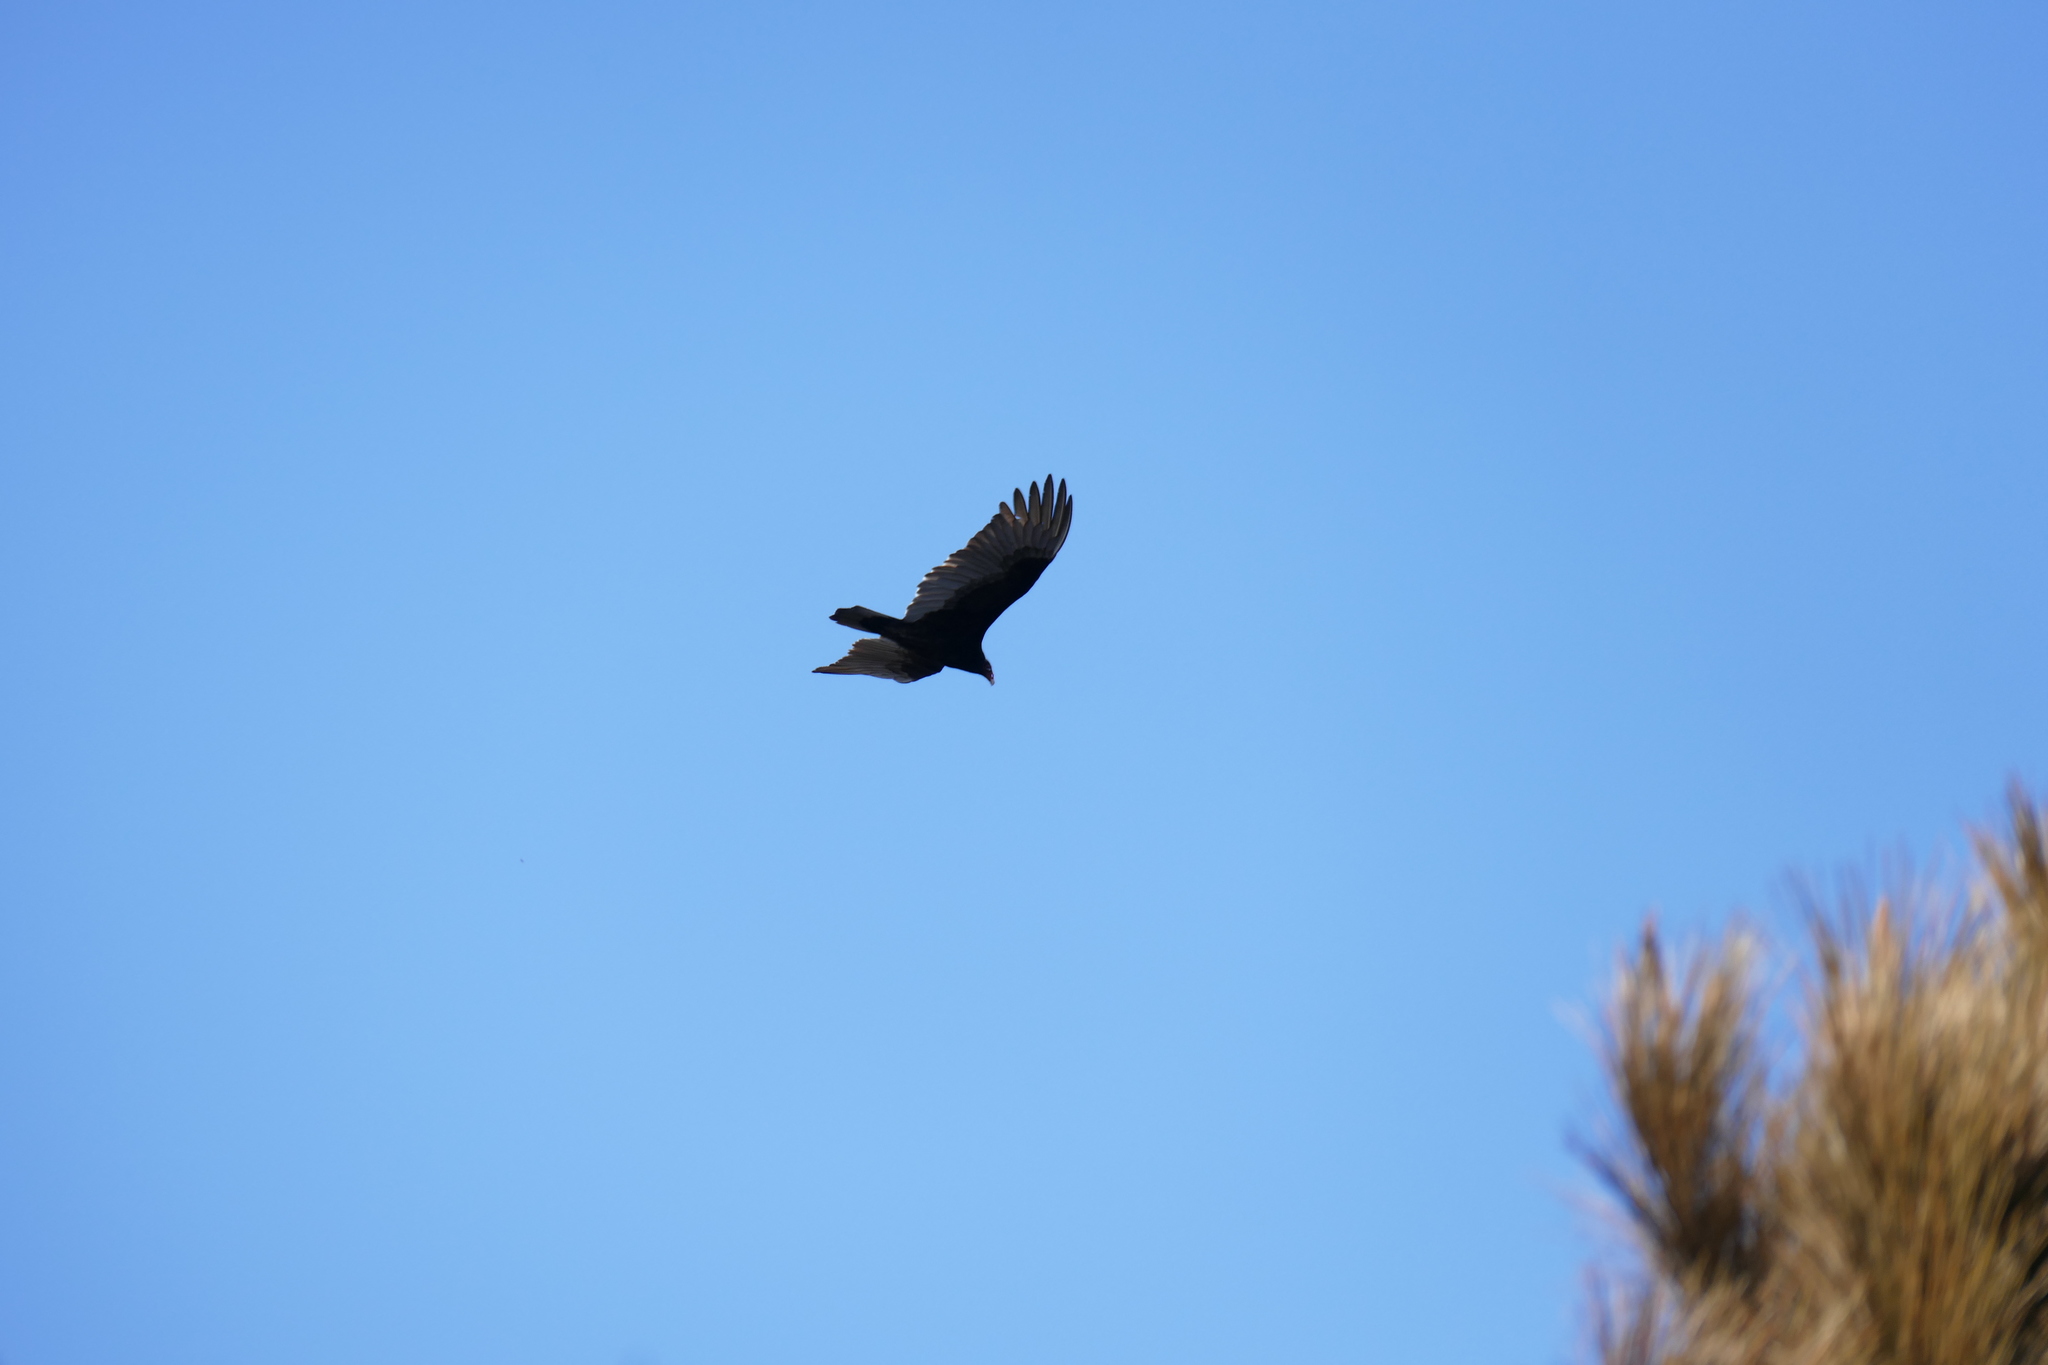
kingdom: Animalia
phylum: Chordata
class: Aves
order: Accipitriformes
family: Cathartidae
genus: Cathartes
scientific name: Cathartes aura
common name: Turkey vulture
